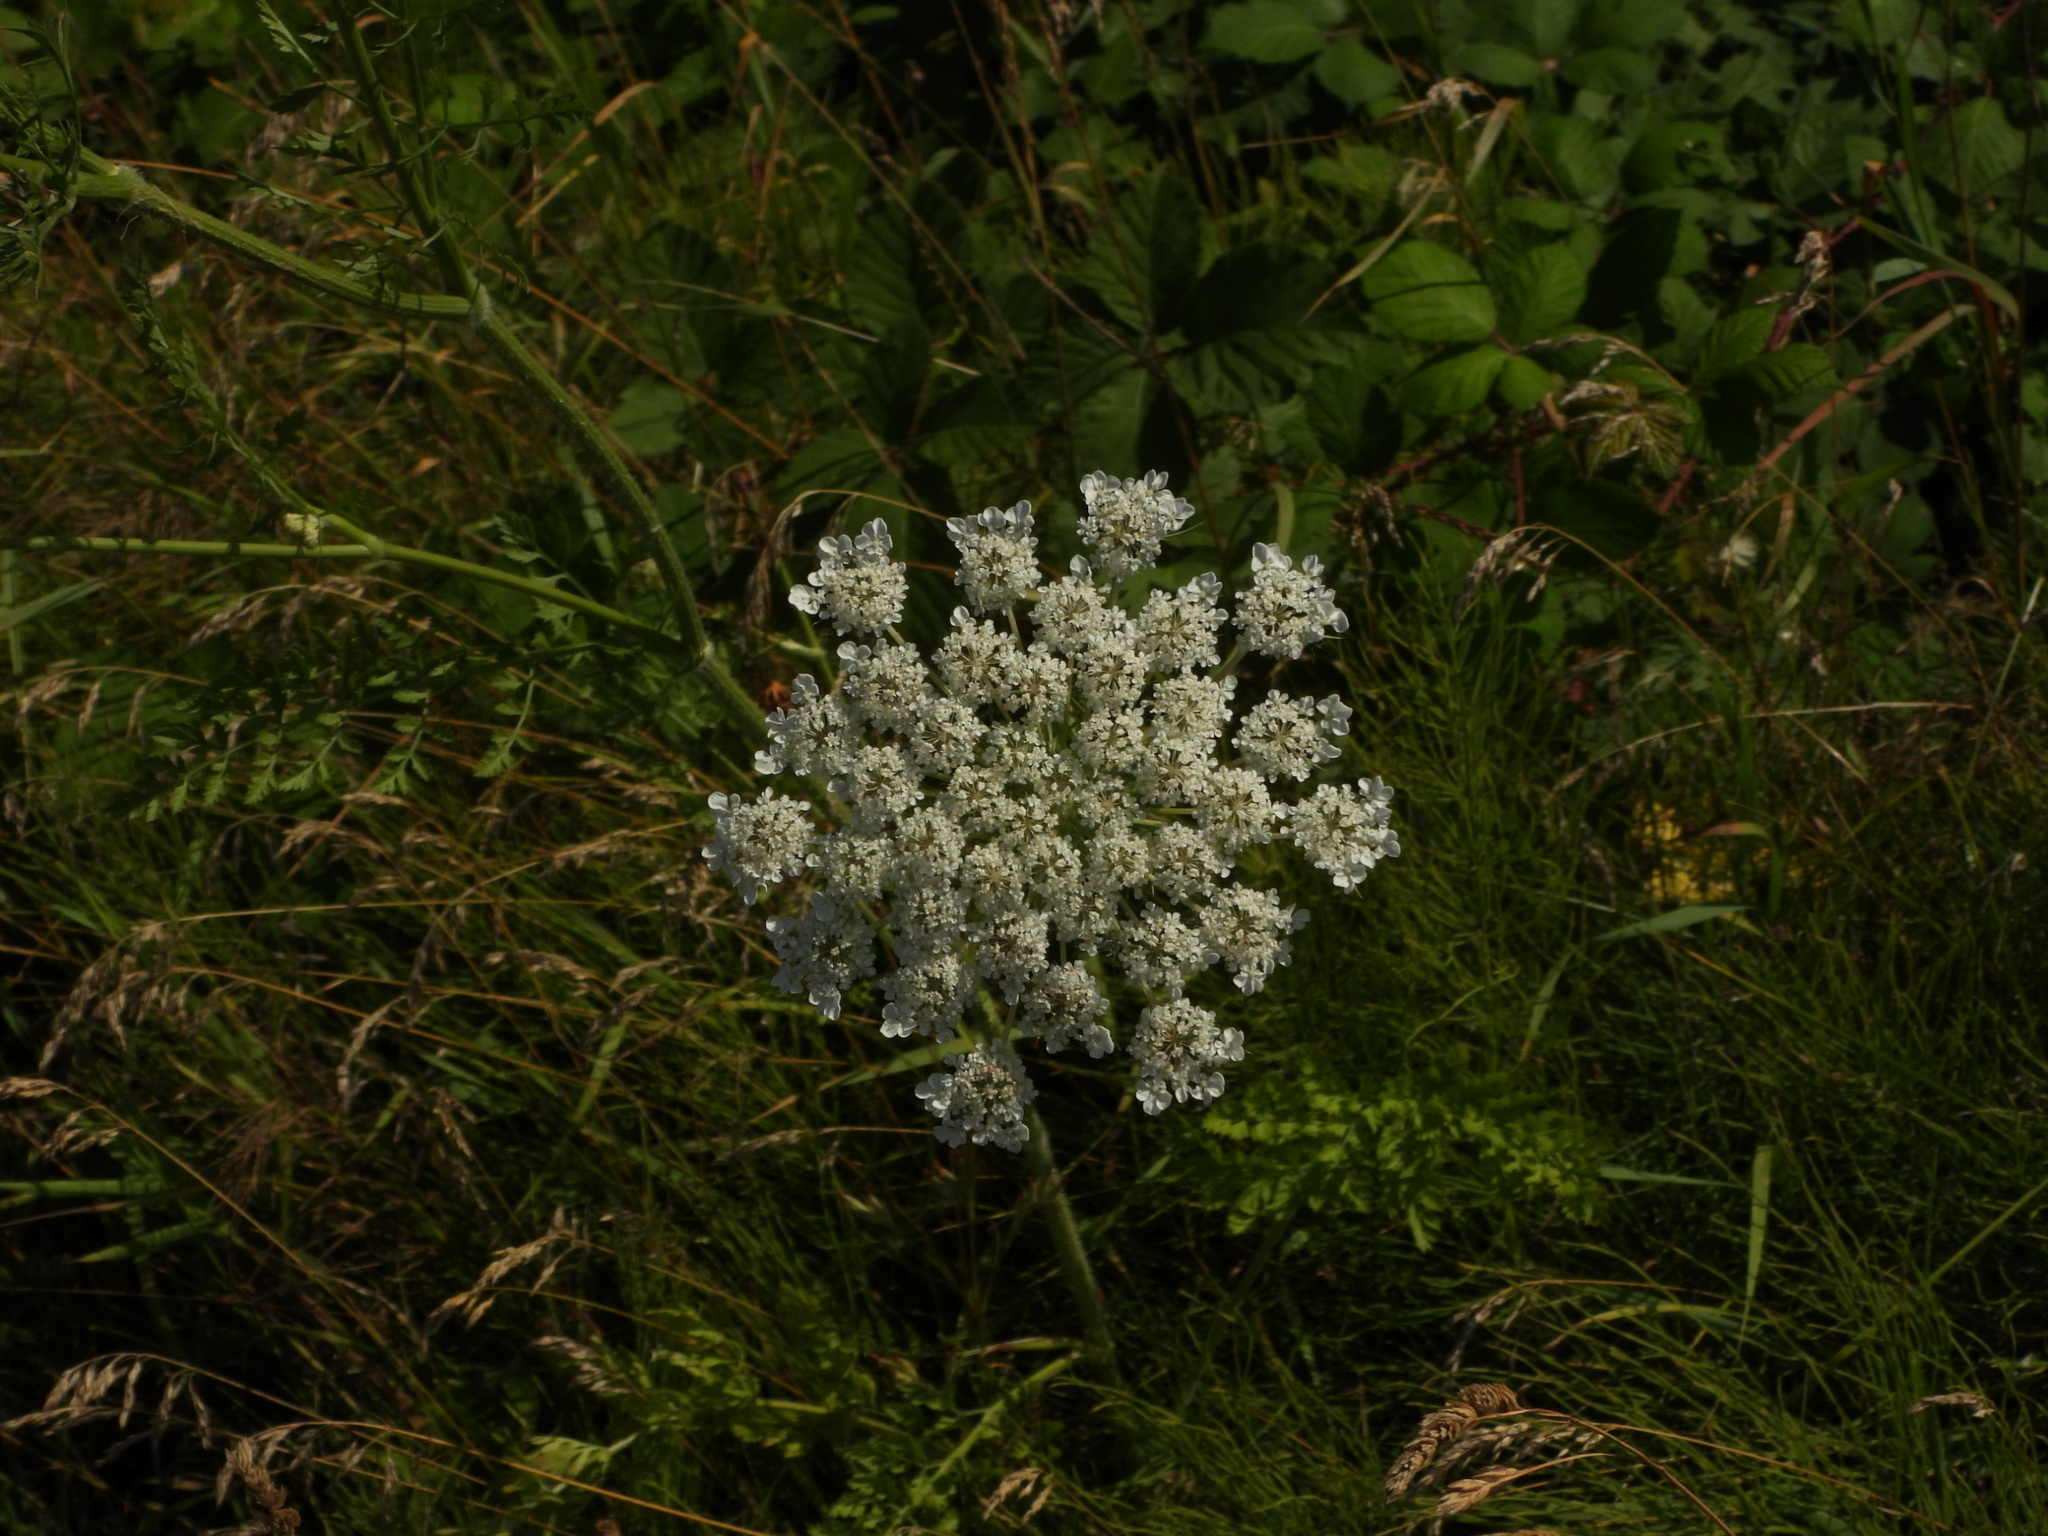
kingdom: Plantae
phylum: Tracheophyta
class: Magnoliopsida
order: Apiales
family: Apiaceae
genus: Daucus
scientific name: Daucus carota
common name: Wild carrot
